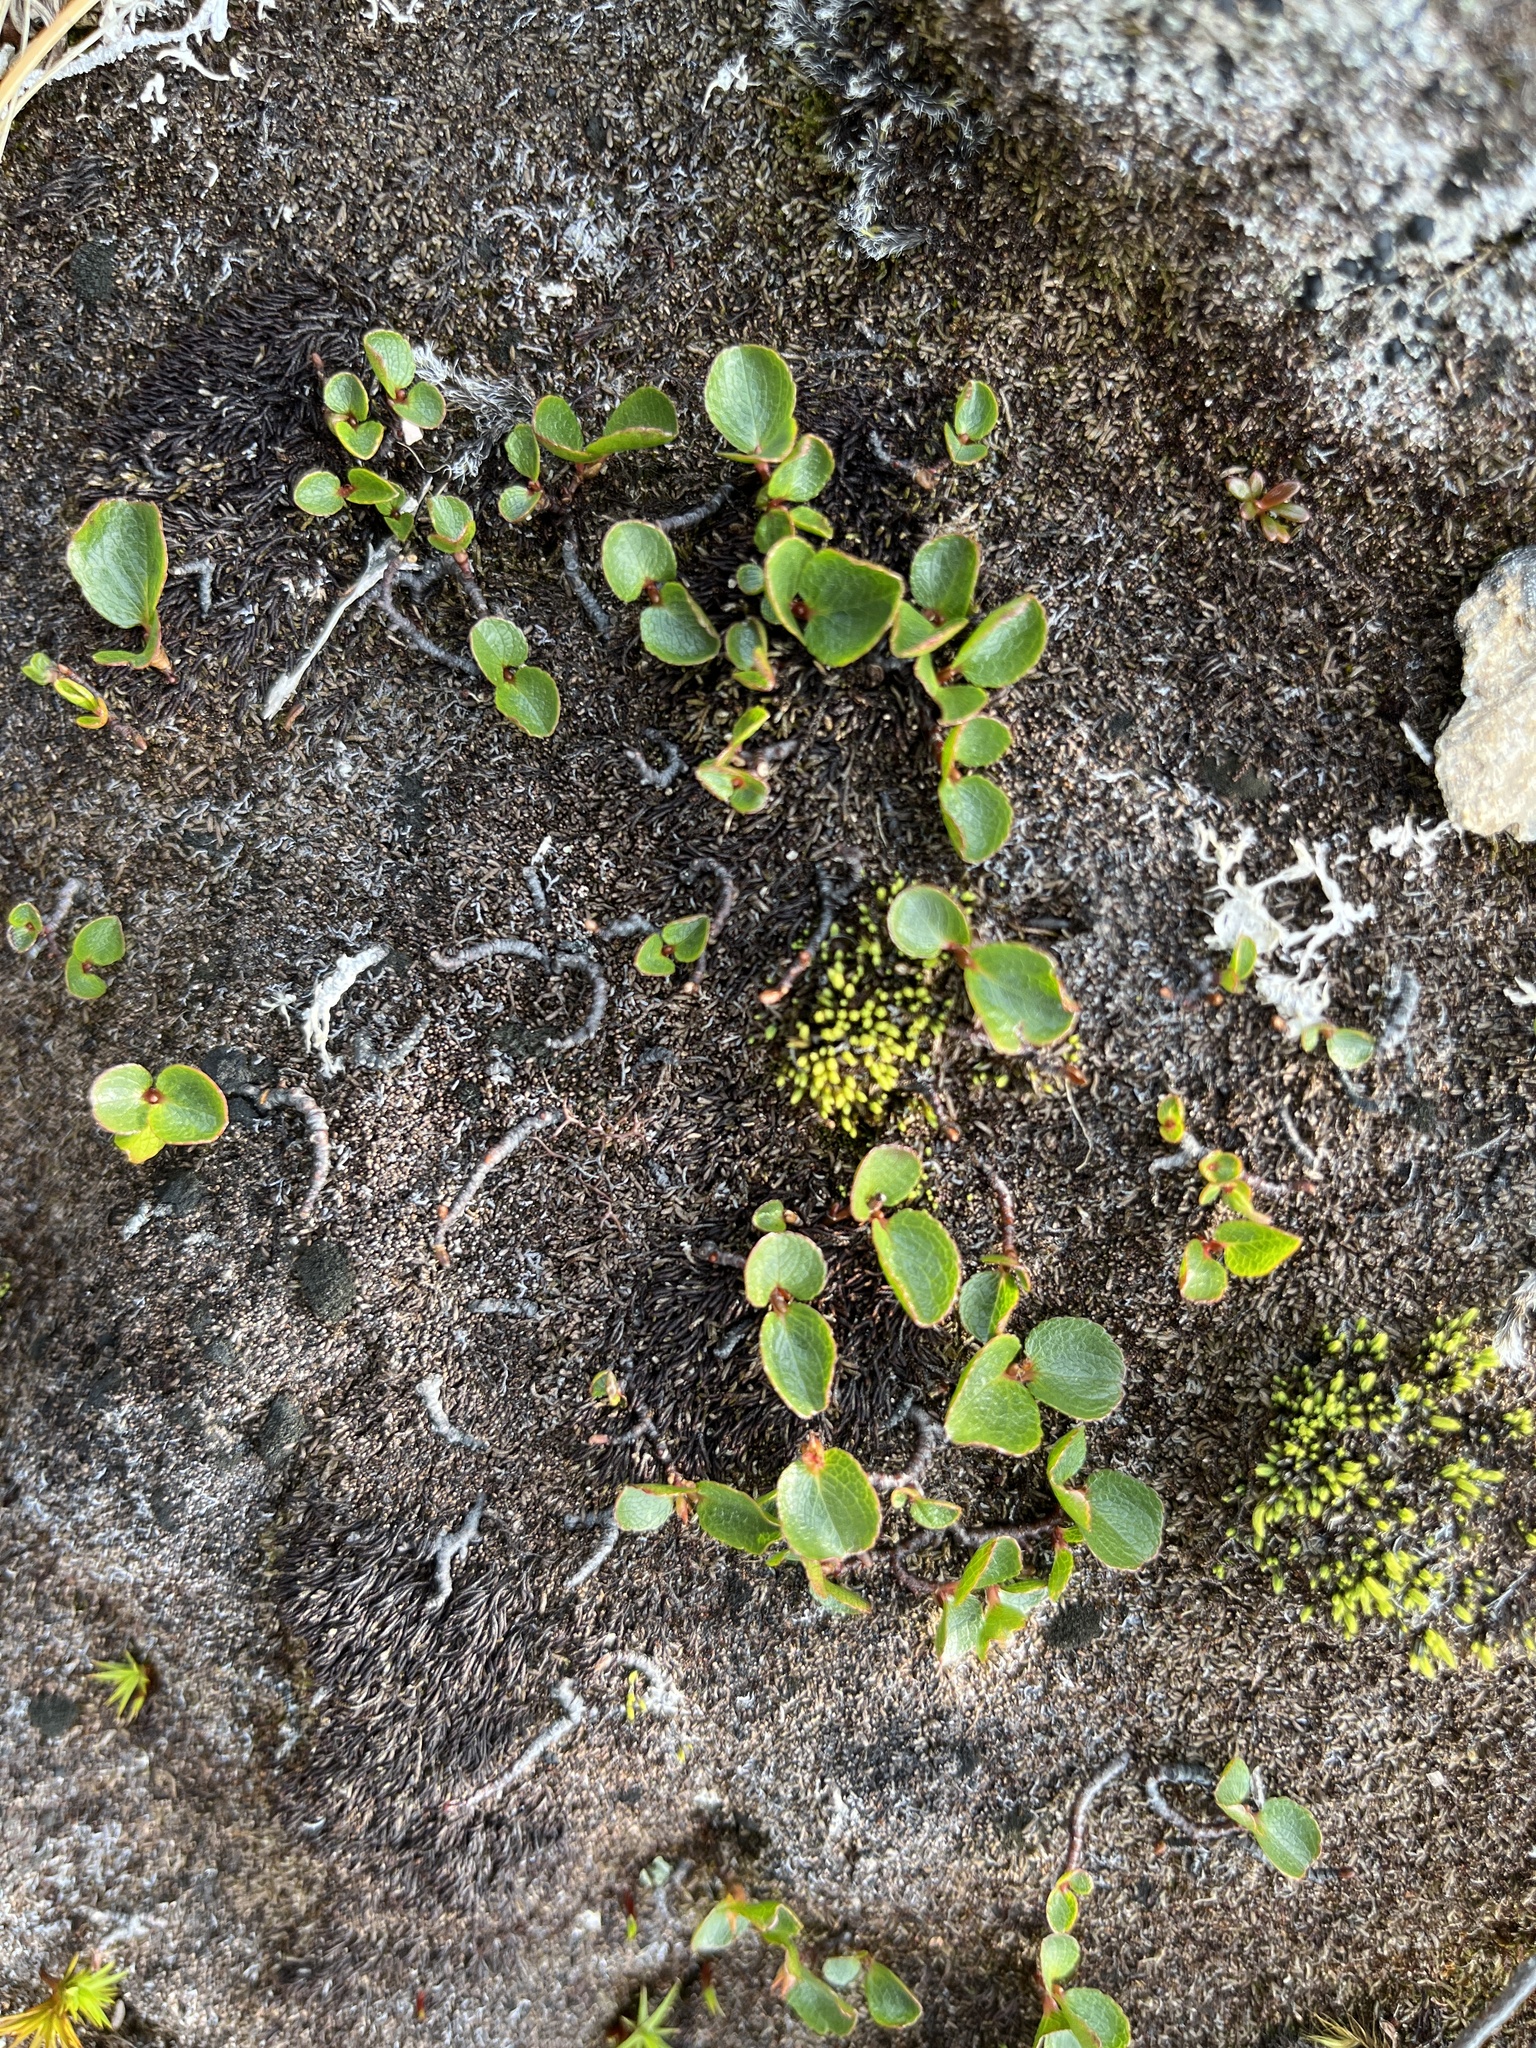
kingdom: Plantae
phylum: Tracheophyta
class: Magnoliopsida
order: Malpighiales
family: Salicaceae
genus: Salix
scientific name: Salix herbacea
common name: Dwarf willow
